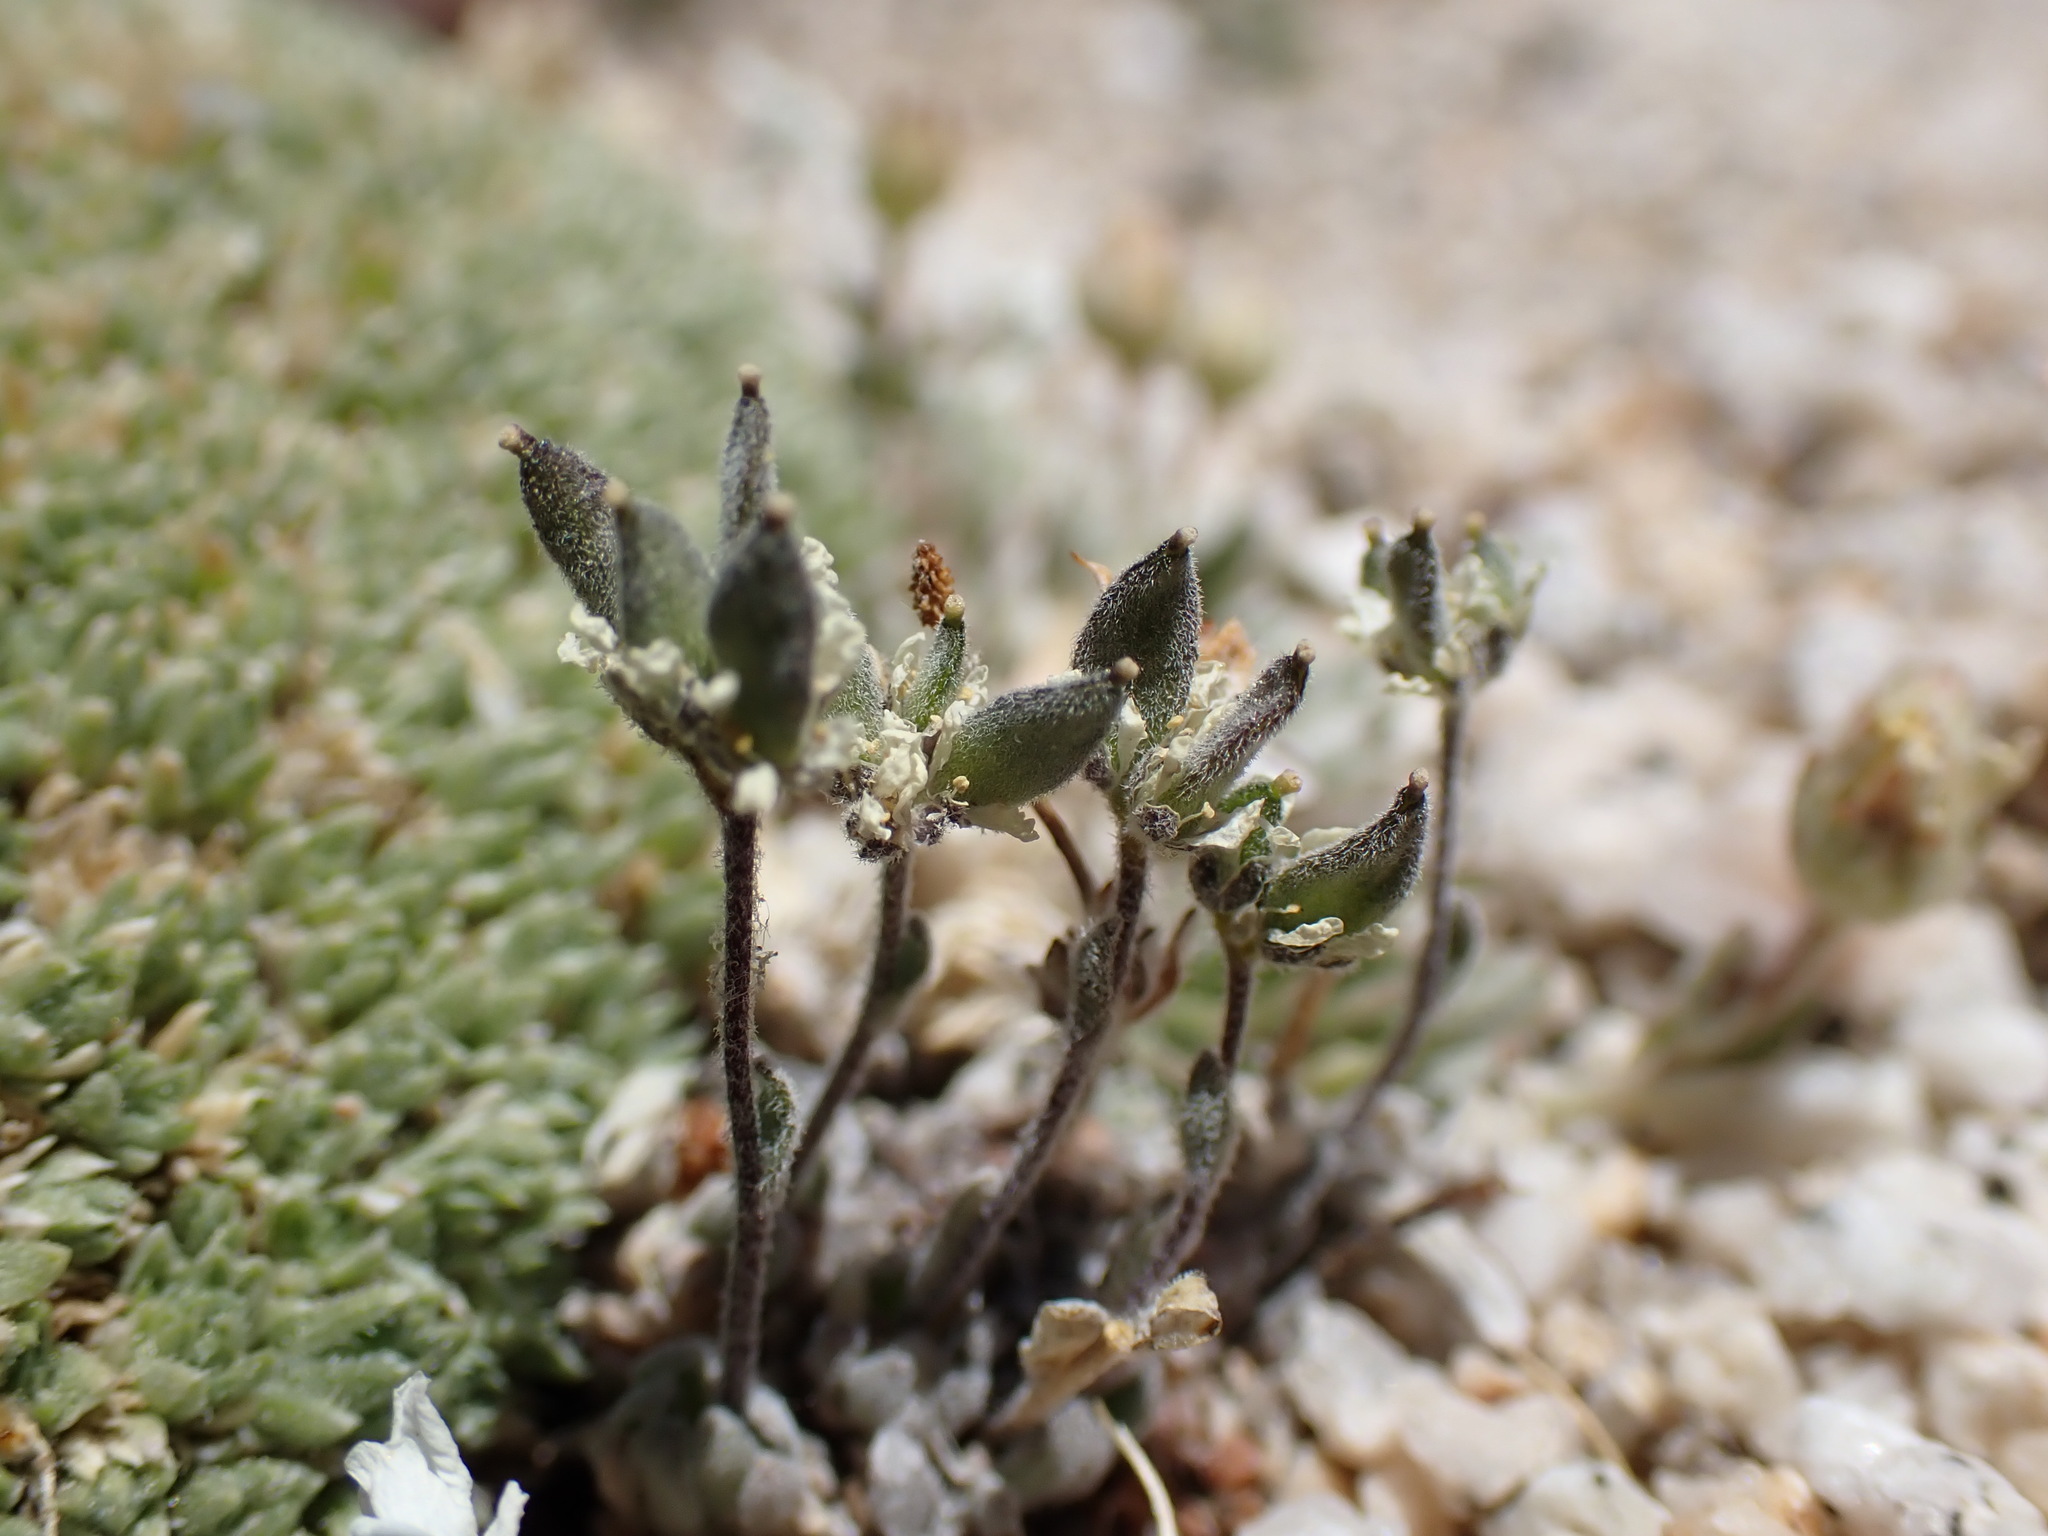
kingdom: Plantae
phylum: Tracheophyta
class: Magnoliopsida
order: Brassicales
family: Brassicaceae
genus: Draba
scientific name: Draba breweri
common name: Cushion draba
